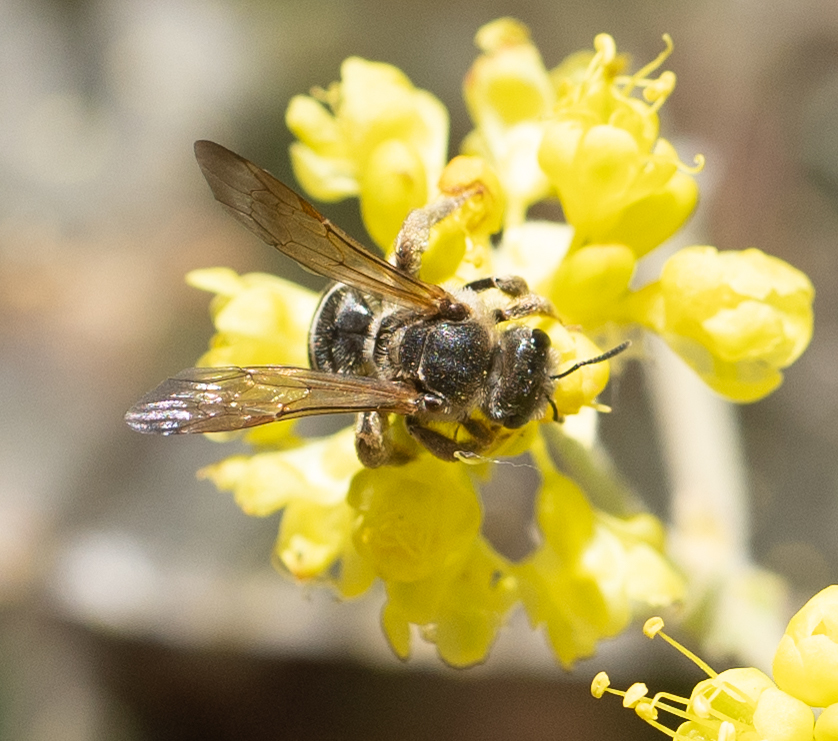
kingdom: Animalia
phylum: Arthropoda
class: Insecta
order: Hymenoptera
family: Halictidae
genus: Halictus
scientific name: Halictus farinosus
